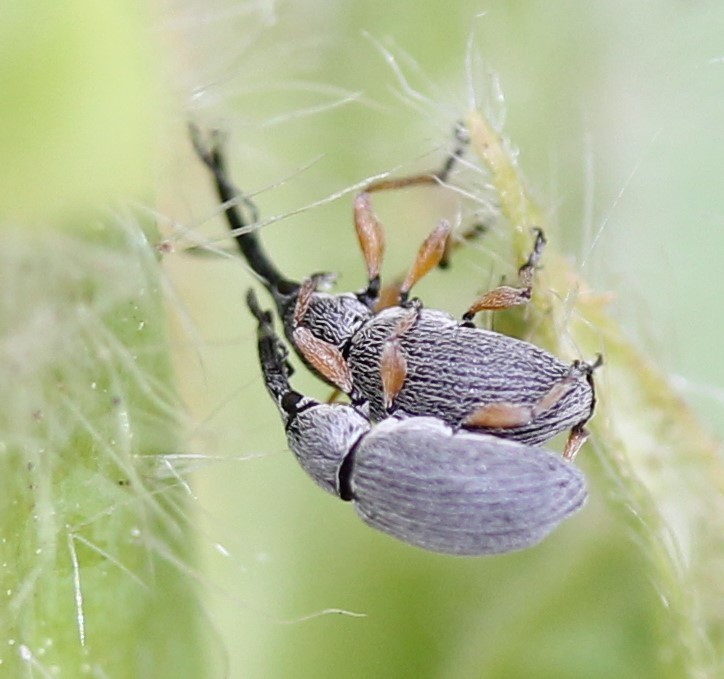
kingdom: Animalia
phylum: Arthropoda
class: Insecta
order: Coleoptera
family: Brentidae
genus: Rhopalapion
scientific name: Rhopalapion longirostre
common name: Hollyhock weevil
